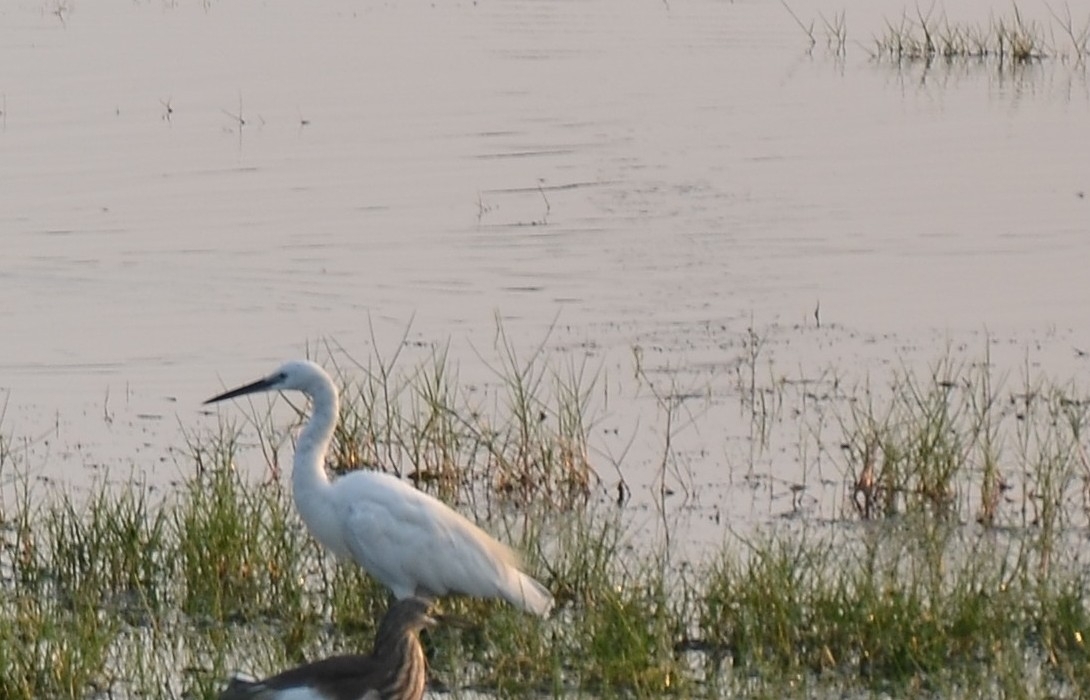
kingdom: Animalia
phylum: Chordata
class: Aves
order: Pelecaniformes
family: Ardeidae
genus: Egretta
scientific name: Egretta garzetta
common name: Little egret
